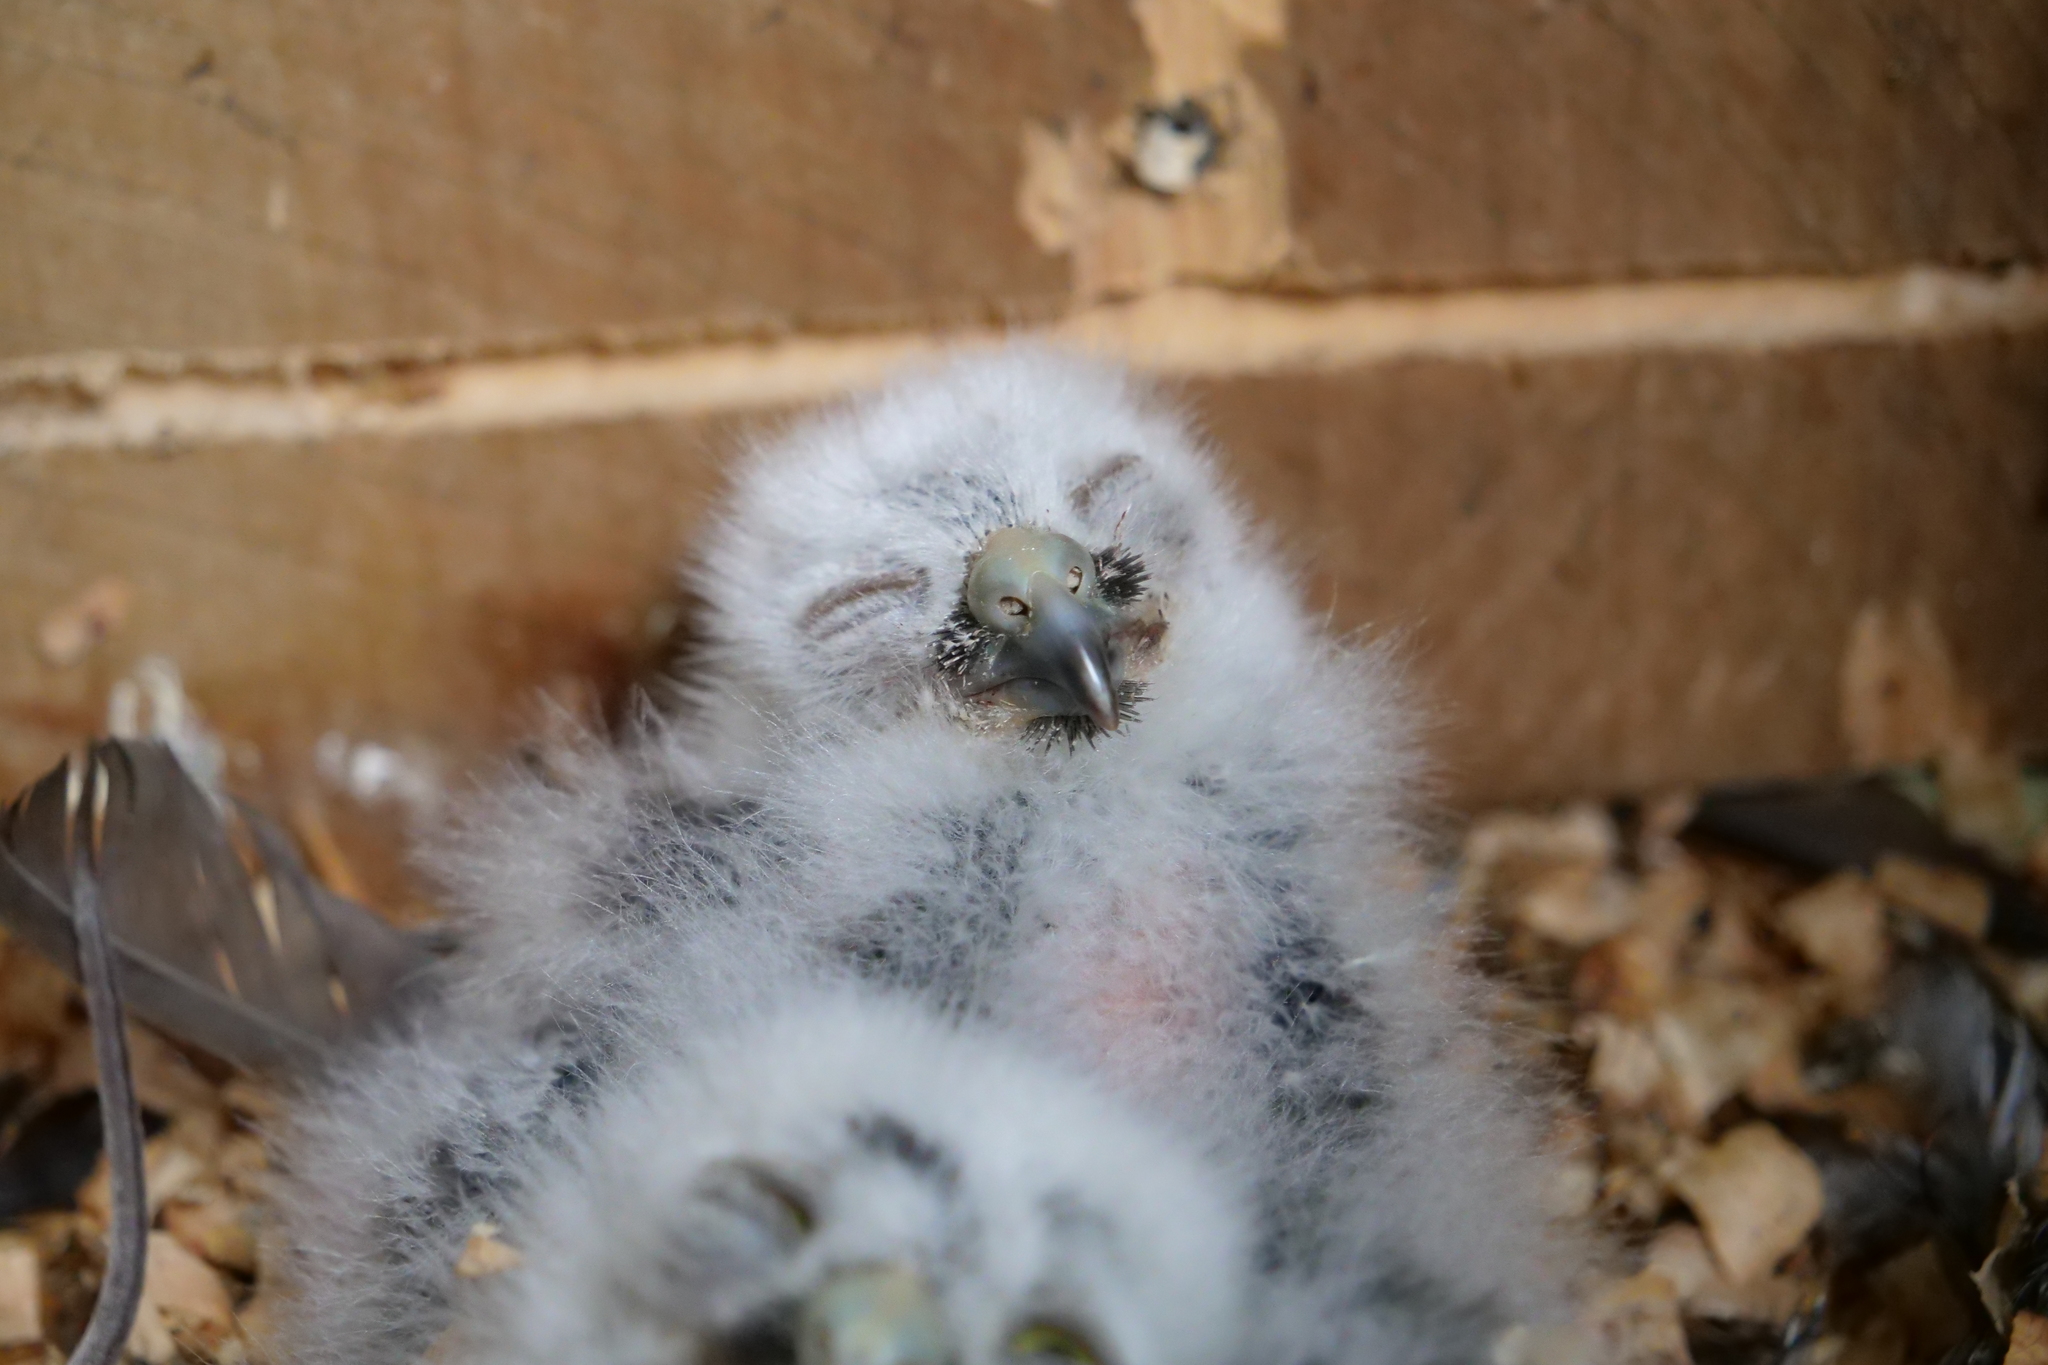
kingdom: Animalia
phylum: Chordata
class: Aves
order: Strigiformes
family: Strigidae
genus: Ninox
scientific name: Ninox novaeseelandiae
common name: Morepork
